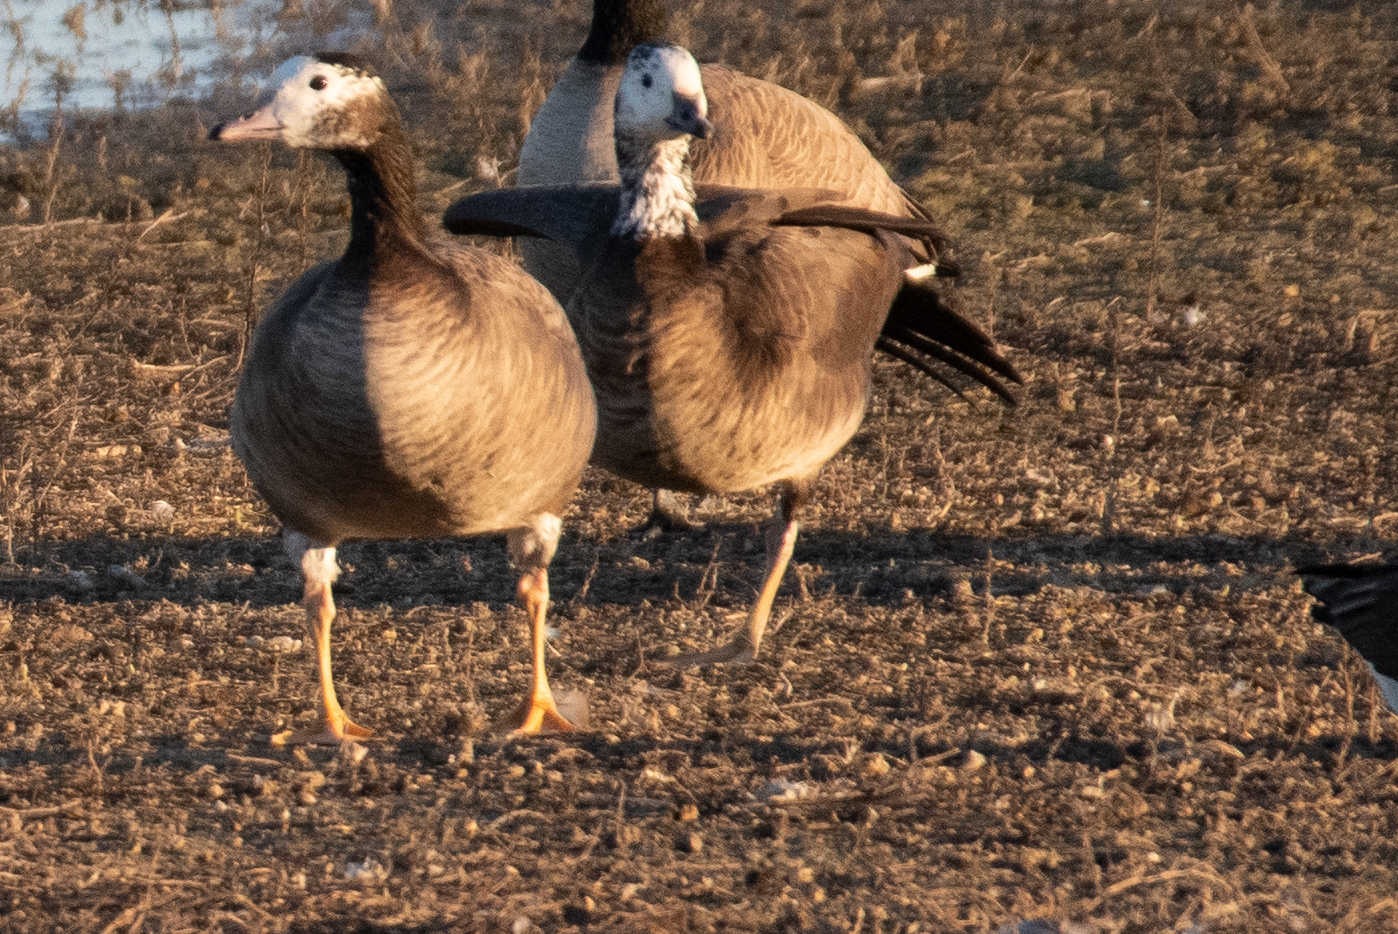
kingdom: Animalia
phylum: Chordata
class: Aves
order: Anseriformes
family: Anatidae
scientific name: Anatidae
